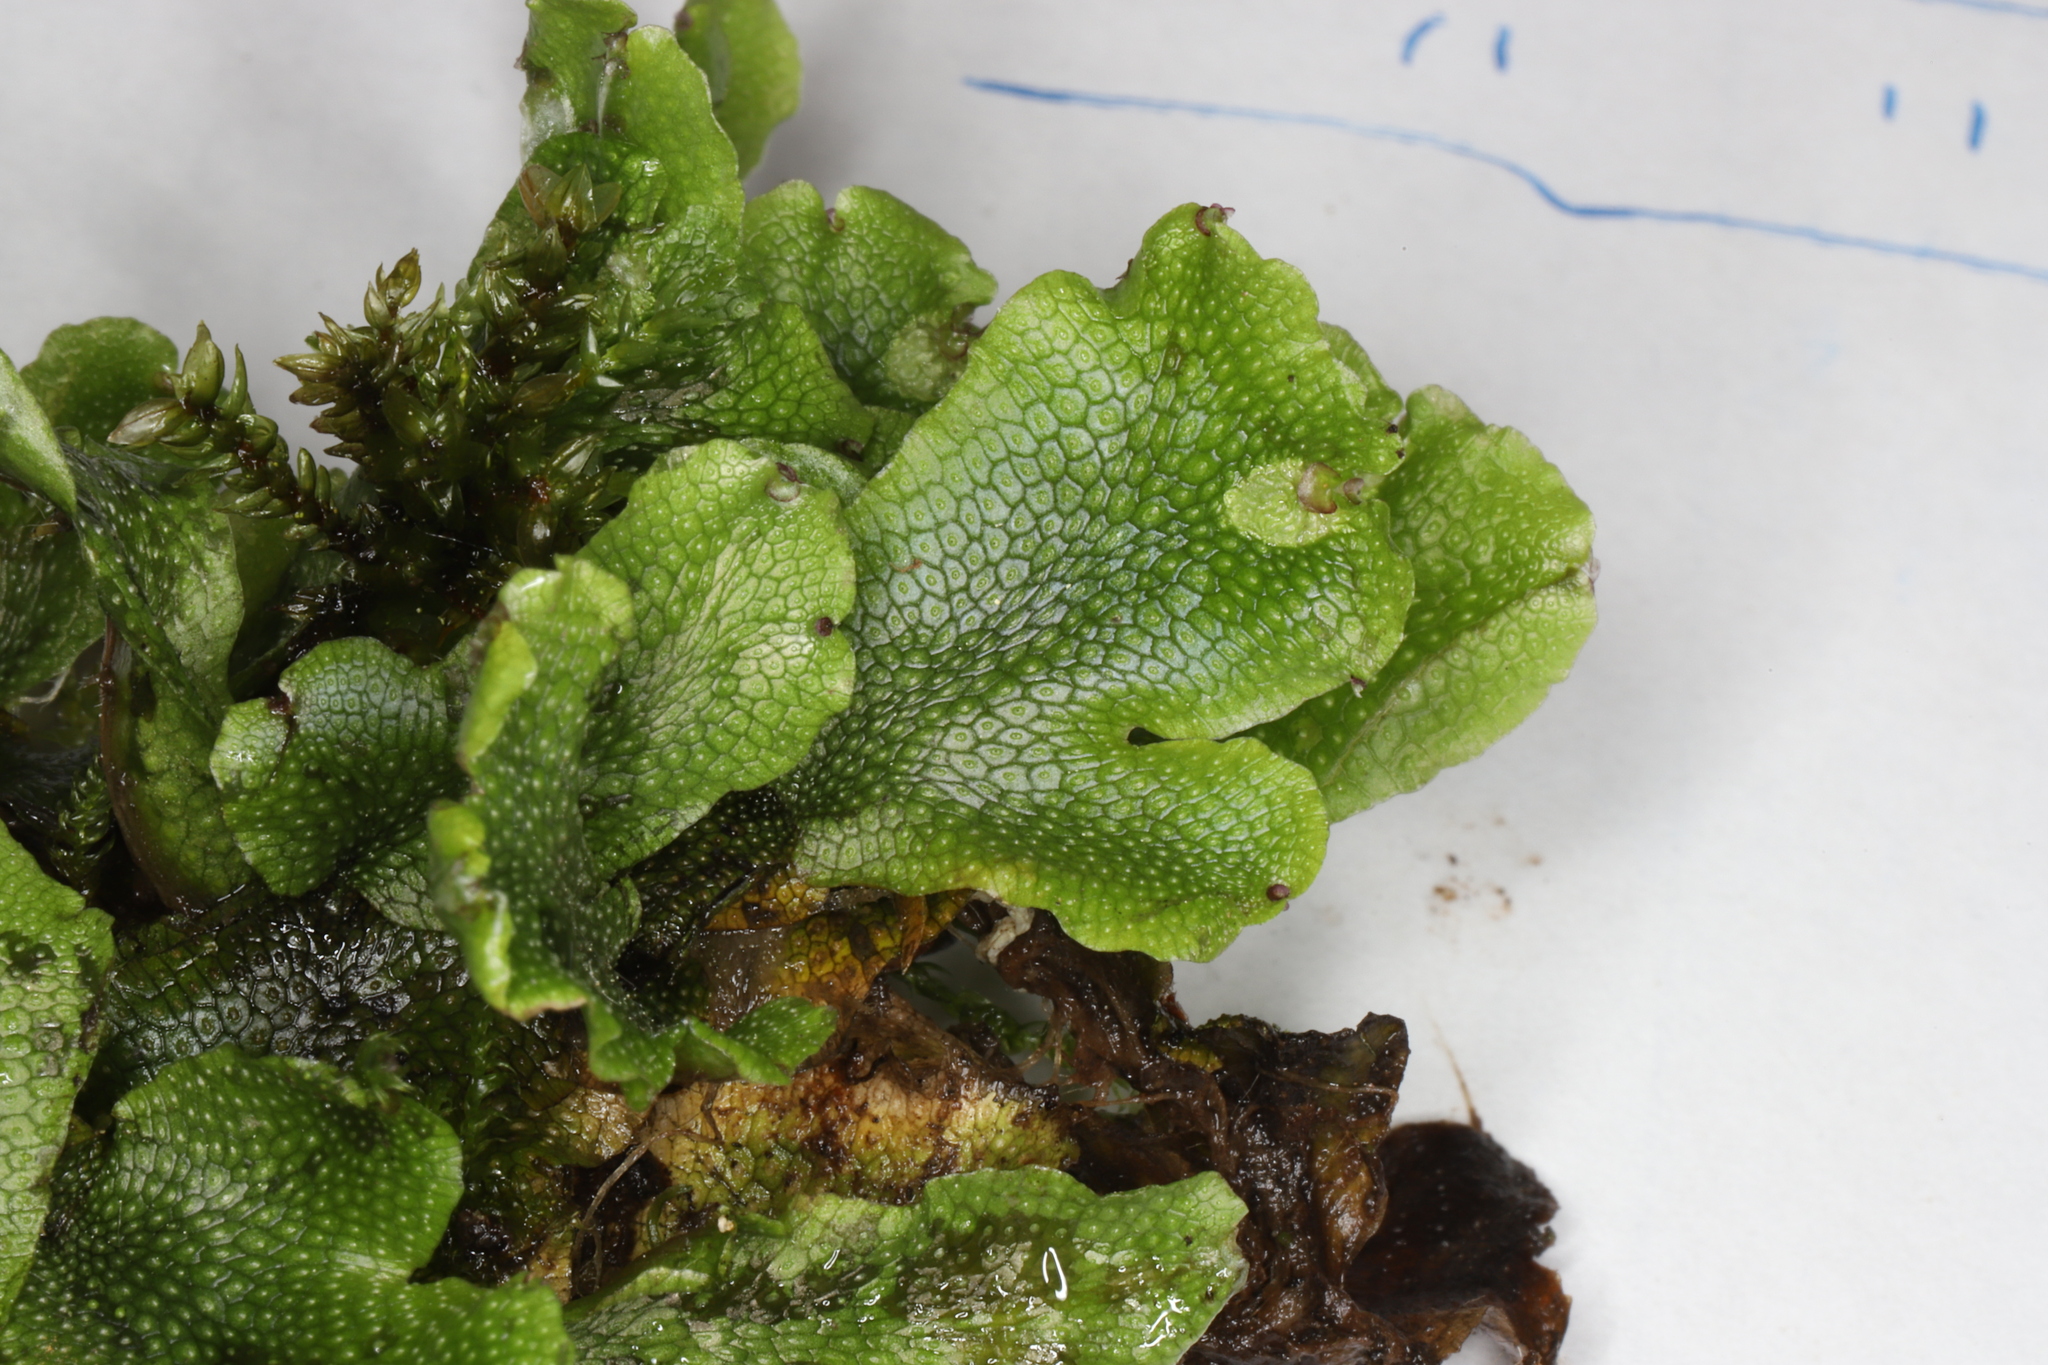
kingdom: Plantae
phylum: Marchantiophyta
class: Marchantiopsida
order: Marchantiales
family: Conocephalaceae
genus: Conocephalum
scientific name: Conocephalum salebrosum
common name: Cat-tongue liverwort
